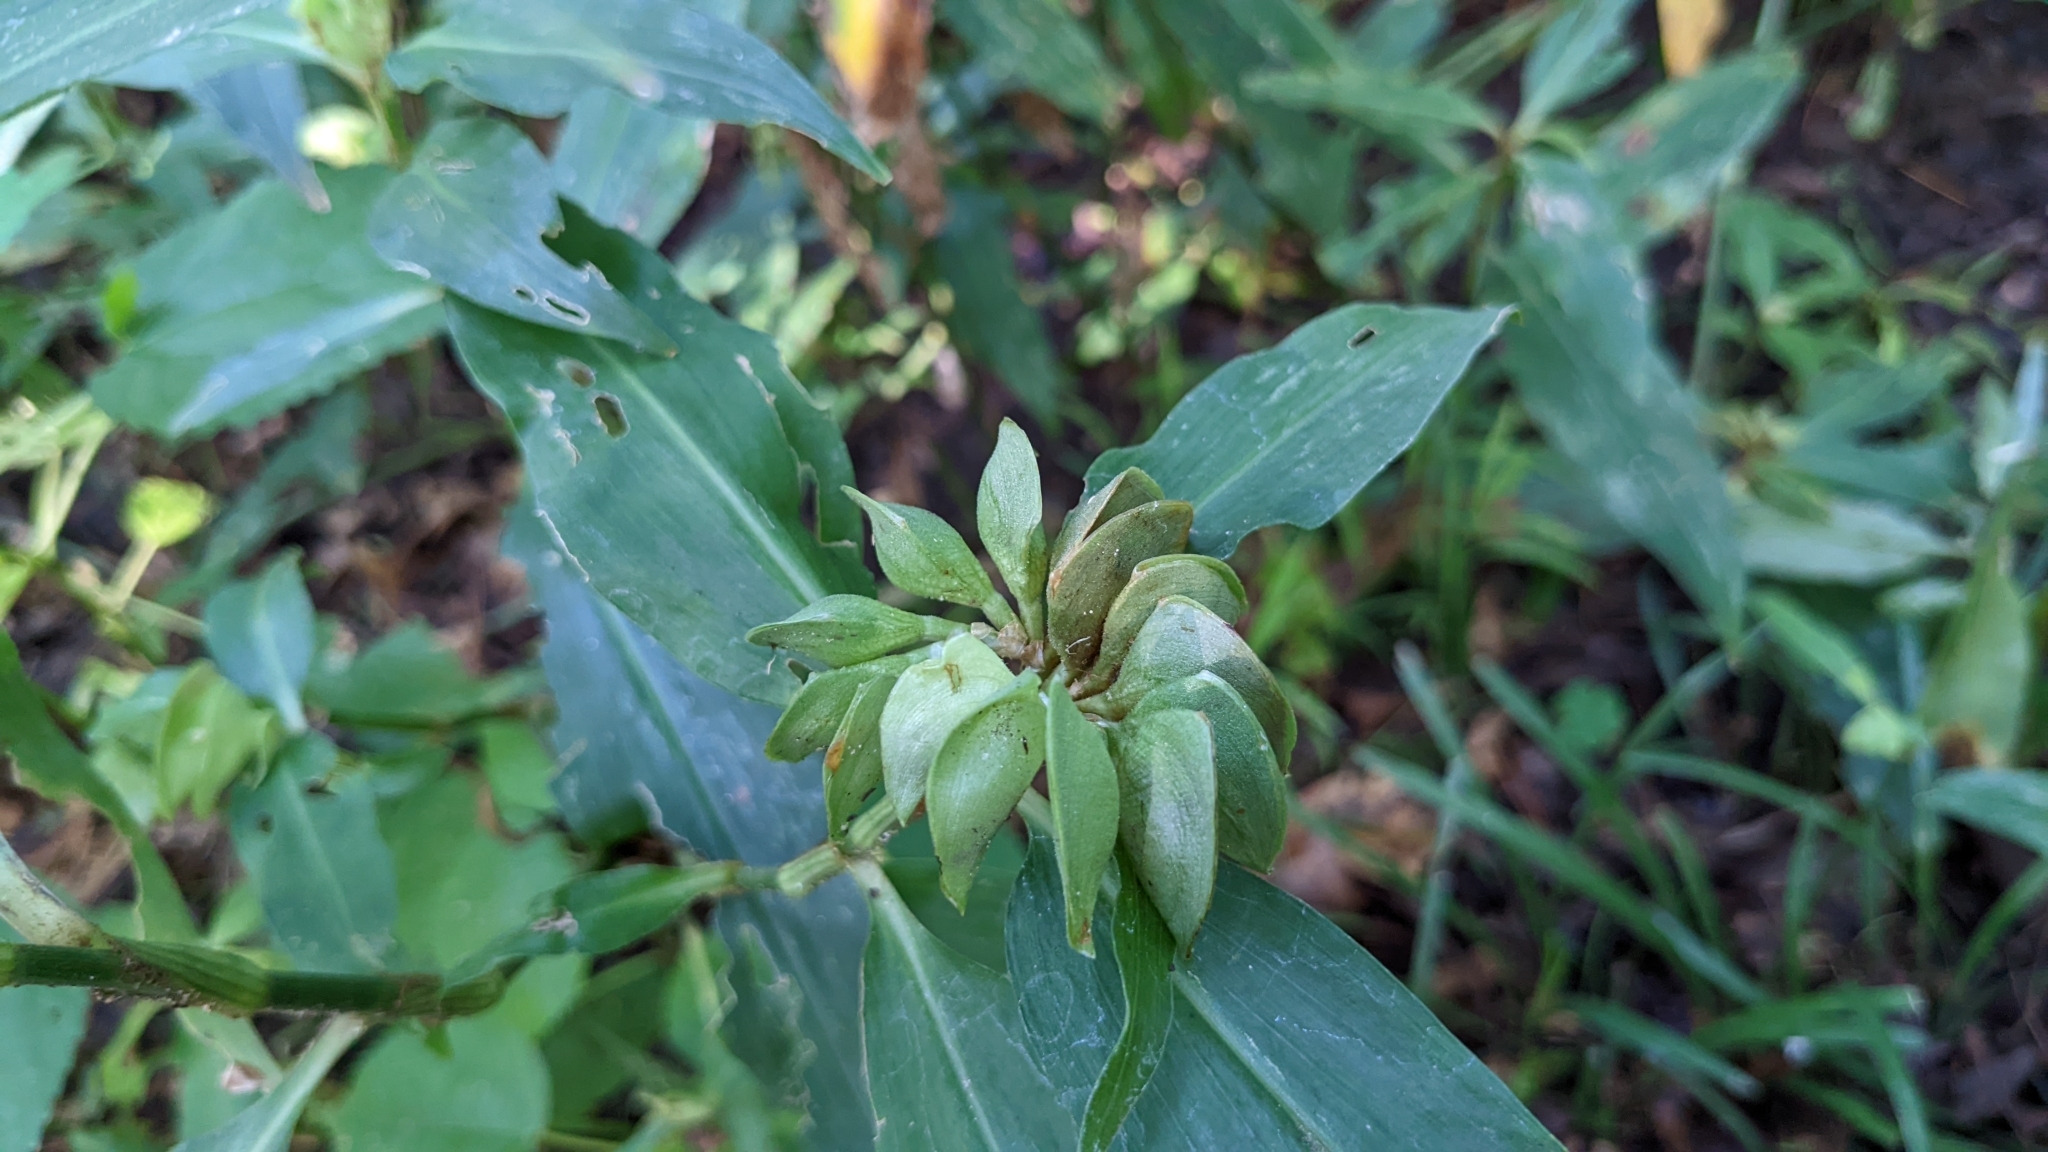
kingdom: Plantae
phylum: Tracheophyta
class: Liliopsida
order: Commelinales
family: Commelinaceae
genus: Commelina
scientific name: Commelina virginica
